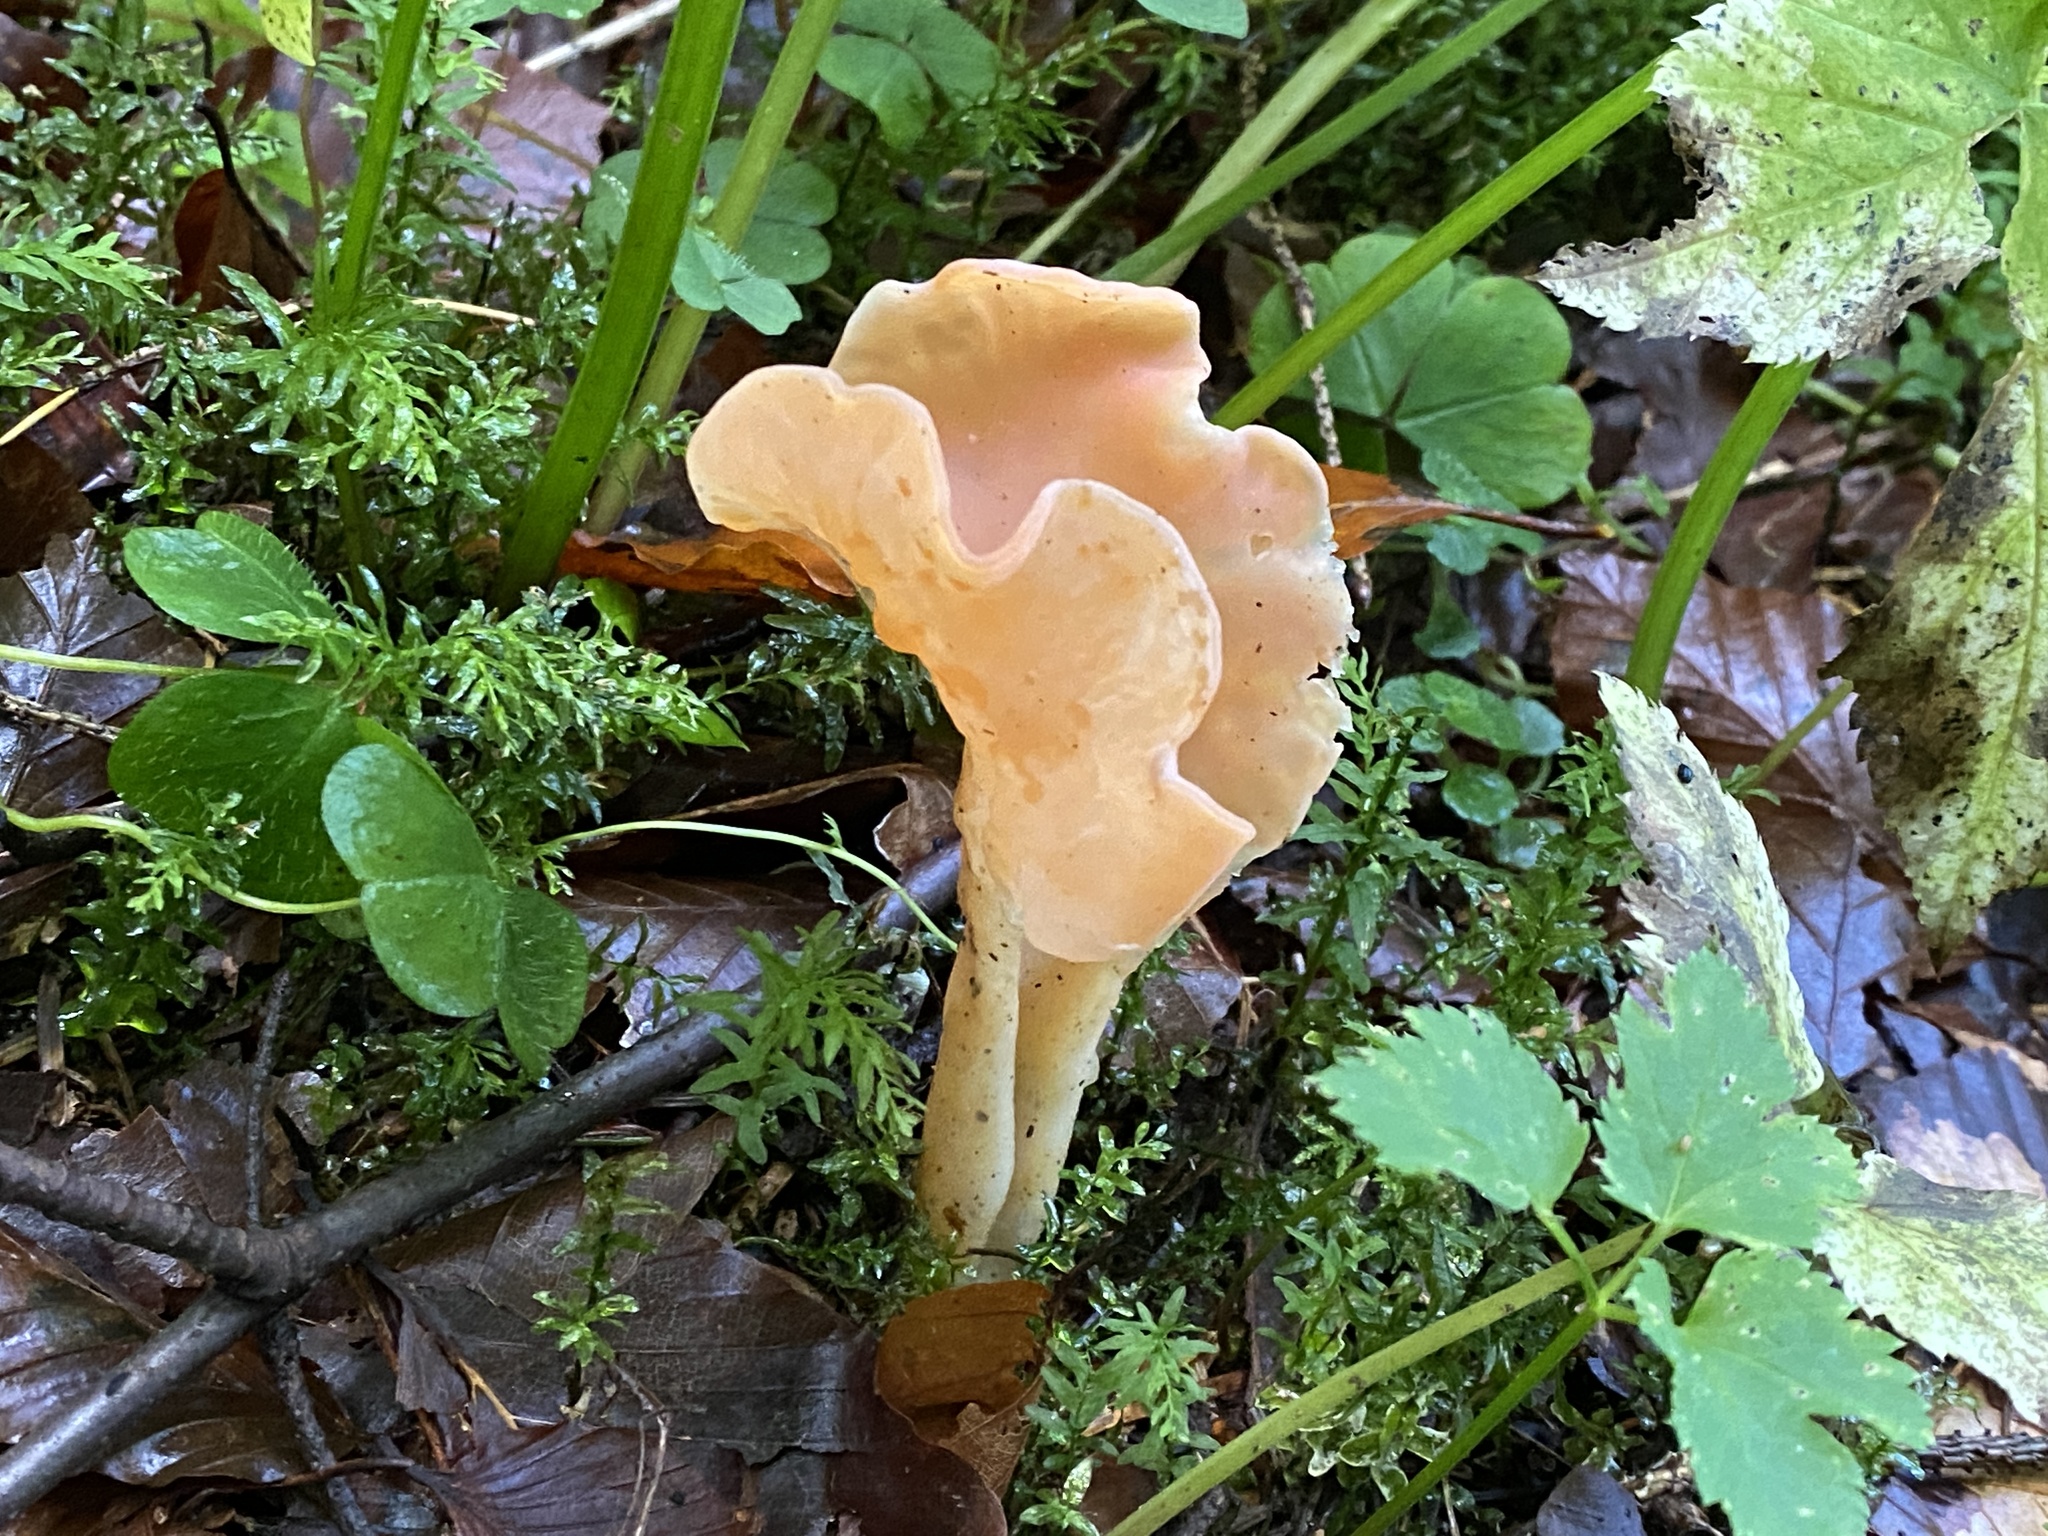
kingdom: Fungi
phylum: Basidiomycota
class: Agaricomycetes
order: Auriculariales
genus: Guepinia
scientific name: Guepinia helvelloides
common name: Salmon salad
